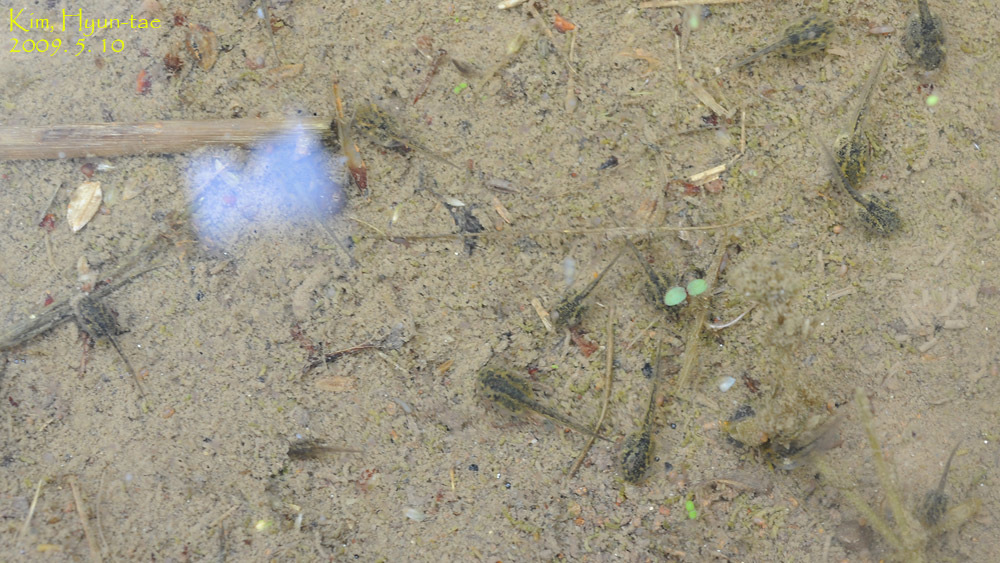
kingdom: Animalia
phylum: Chordata
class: Amphibia
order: Anura
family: Hylidae
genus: Dryophytes
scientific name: Dryophytes japonicus
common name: Japanese treefrog
